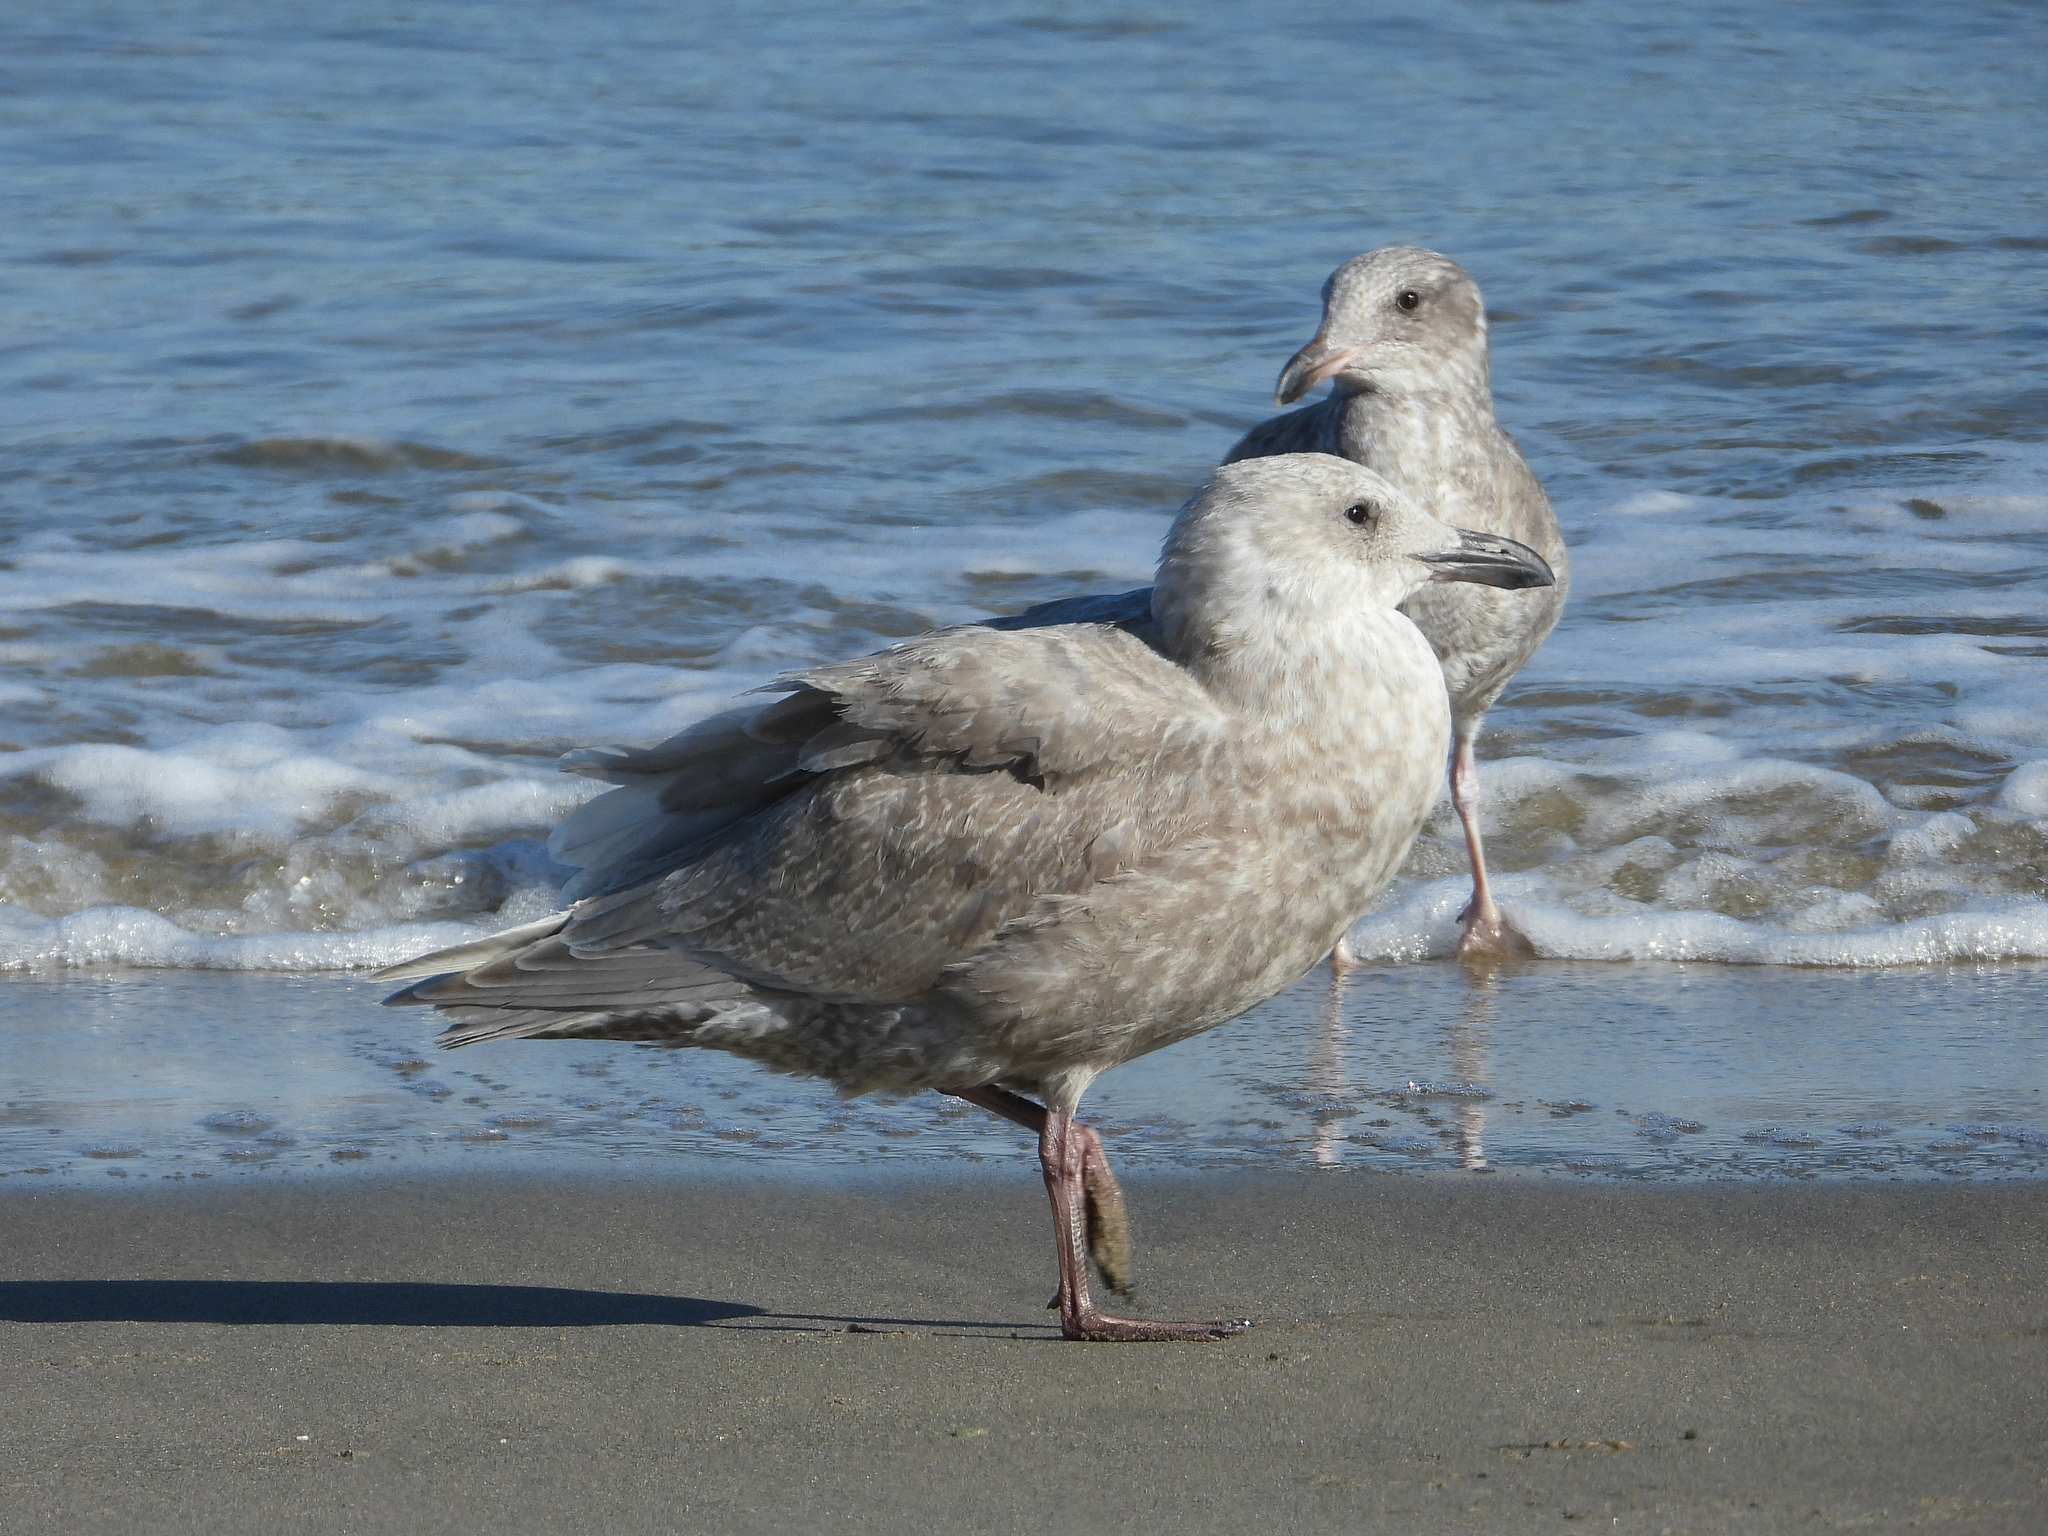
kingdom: Animalia
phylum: Chordata
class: Aves
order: Charadriiformes
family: Laridae
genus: Larus
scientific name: Larus glaucescens
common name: Glaucous-winged gull
